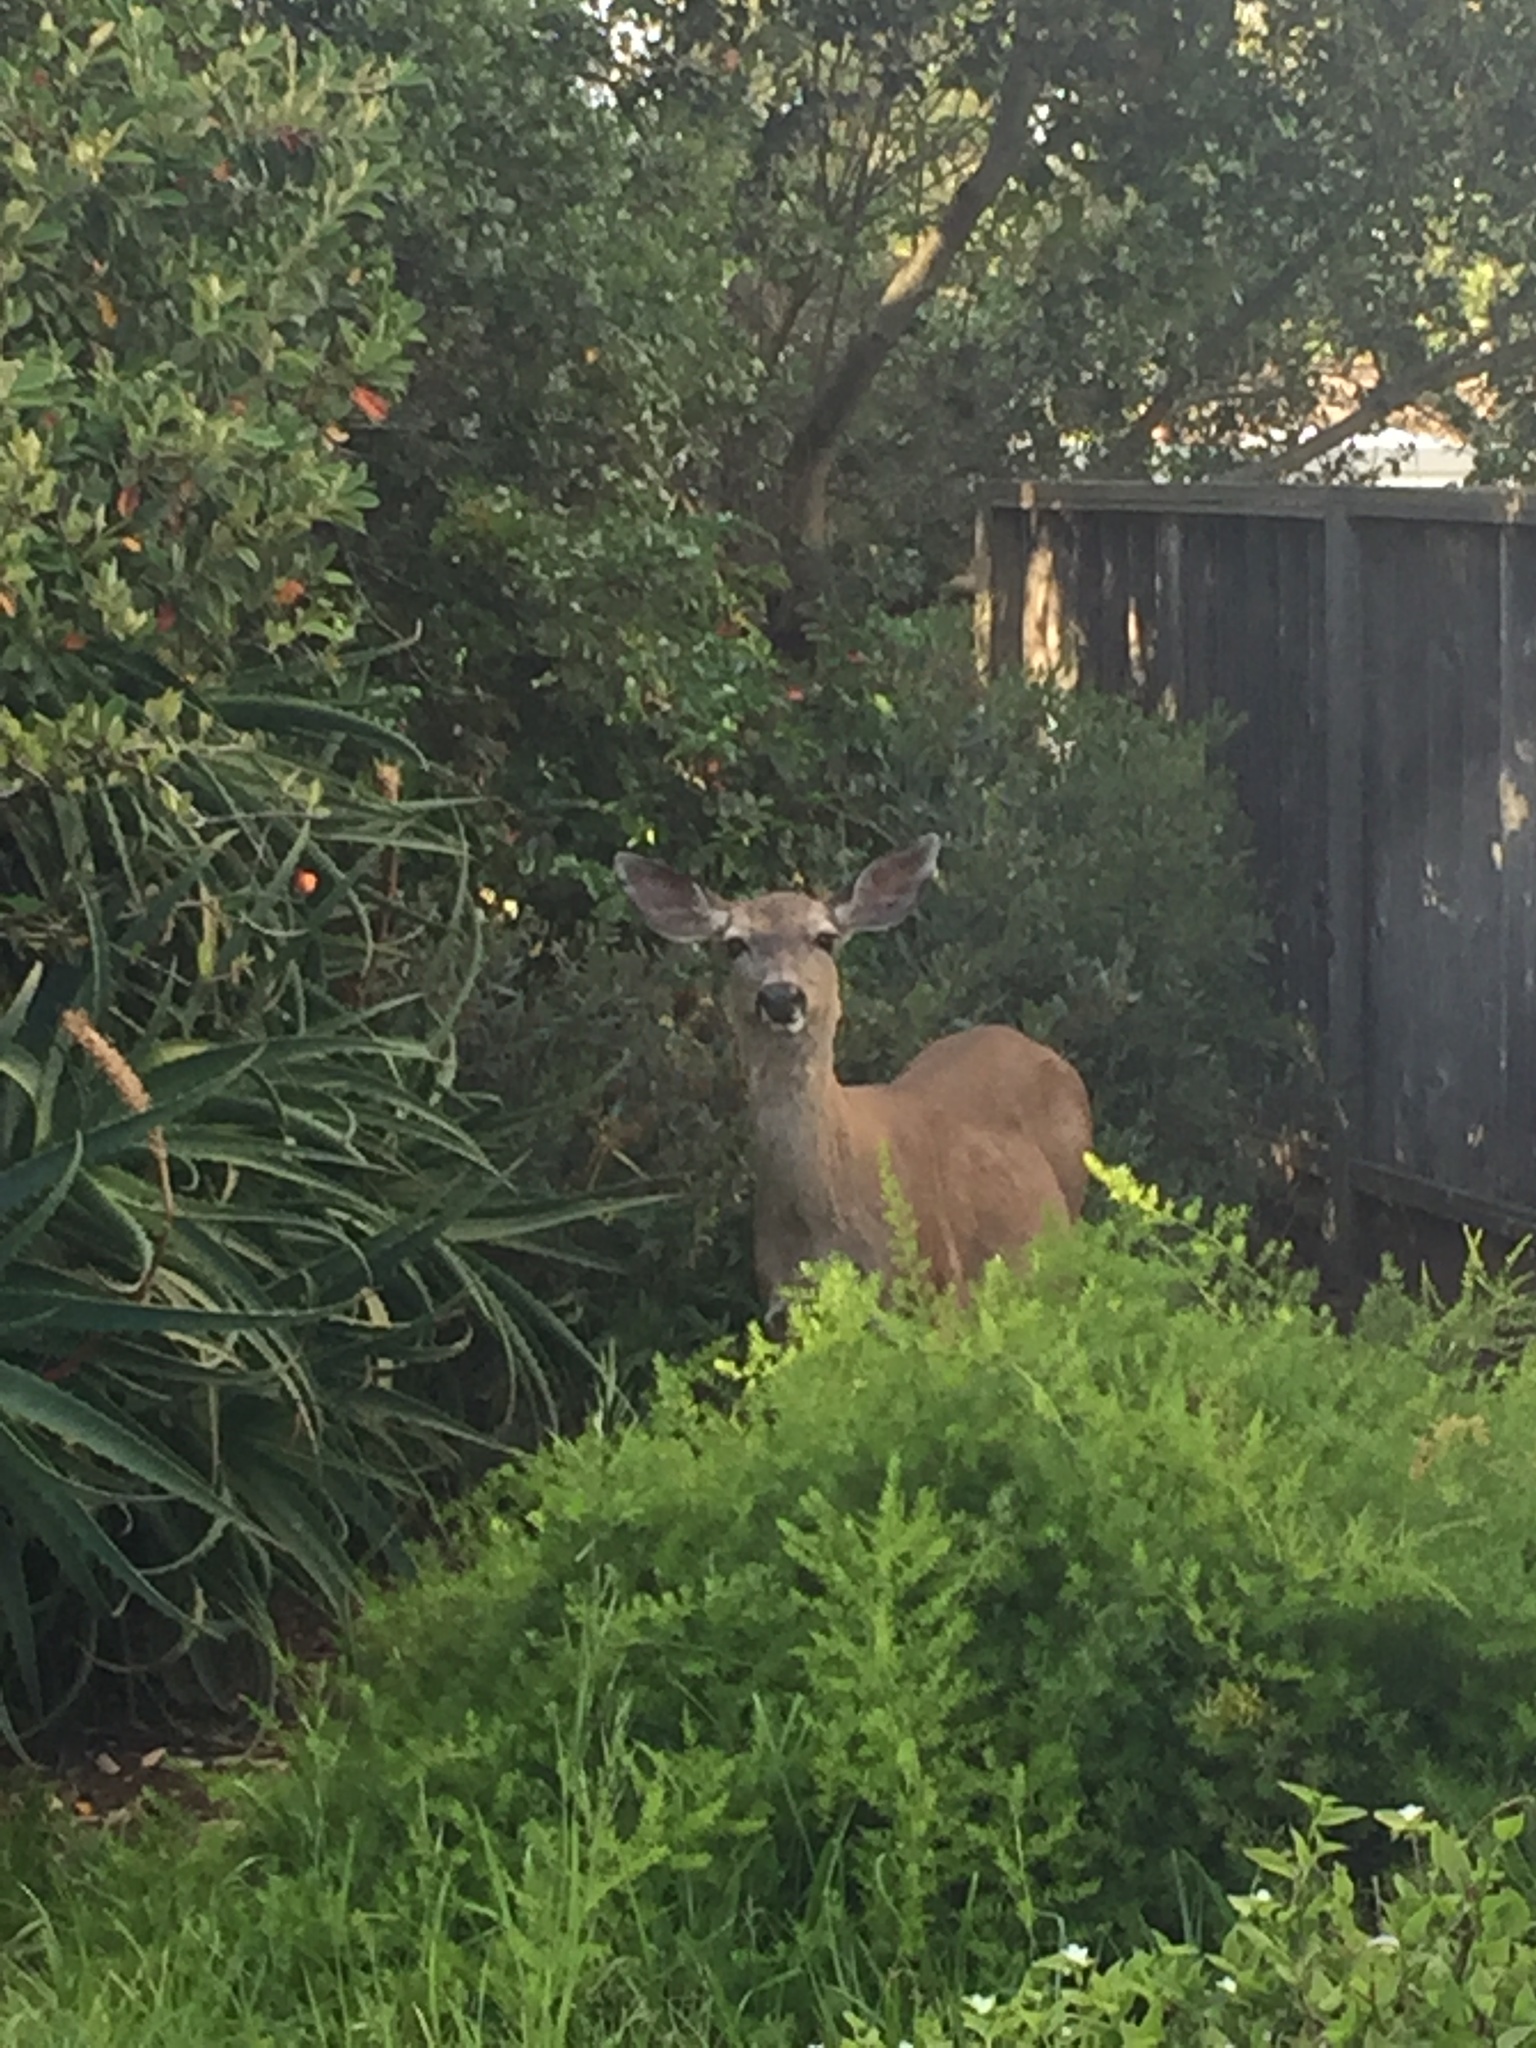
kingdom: Animalia
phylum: Chordata
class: Mammalia
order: Artiodactyla
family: Cervidae
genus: Odocoileus
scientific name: Odocoileus hemionus
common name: Mule deer
